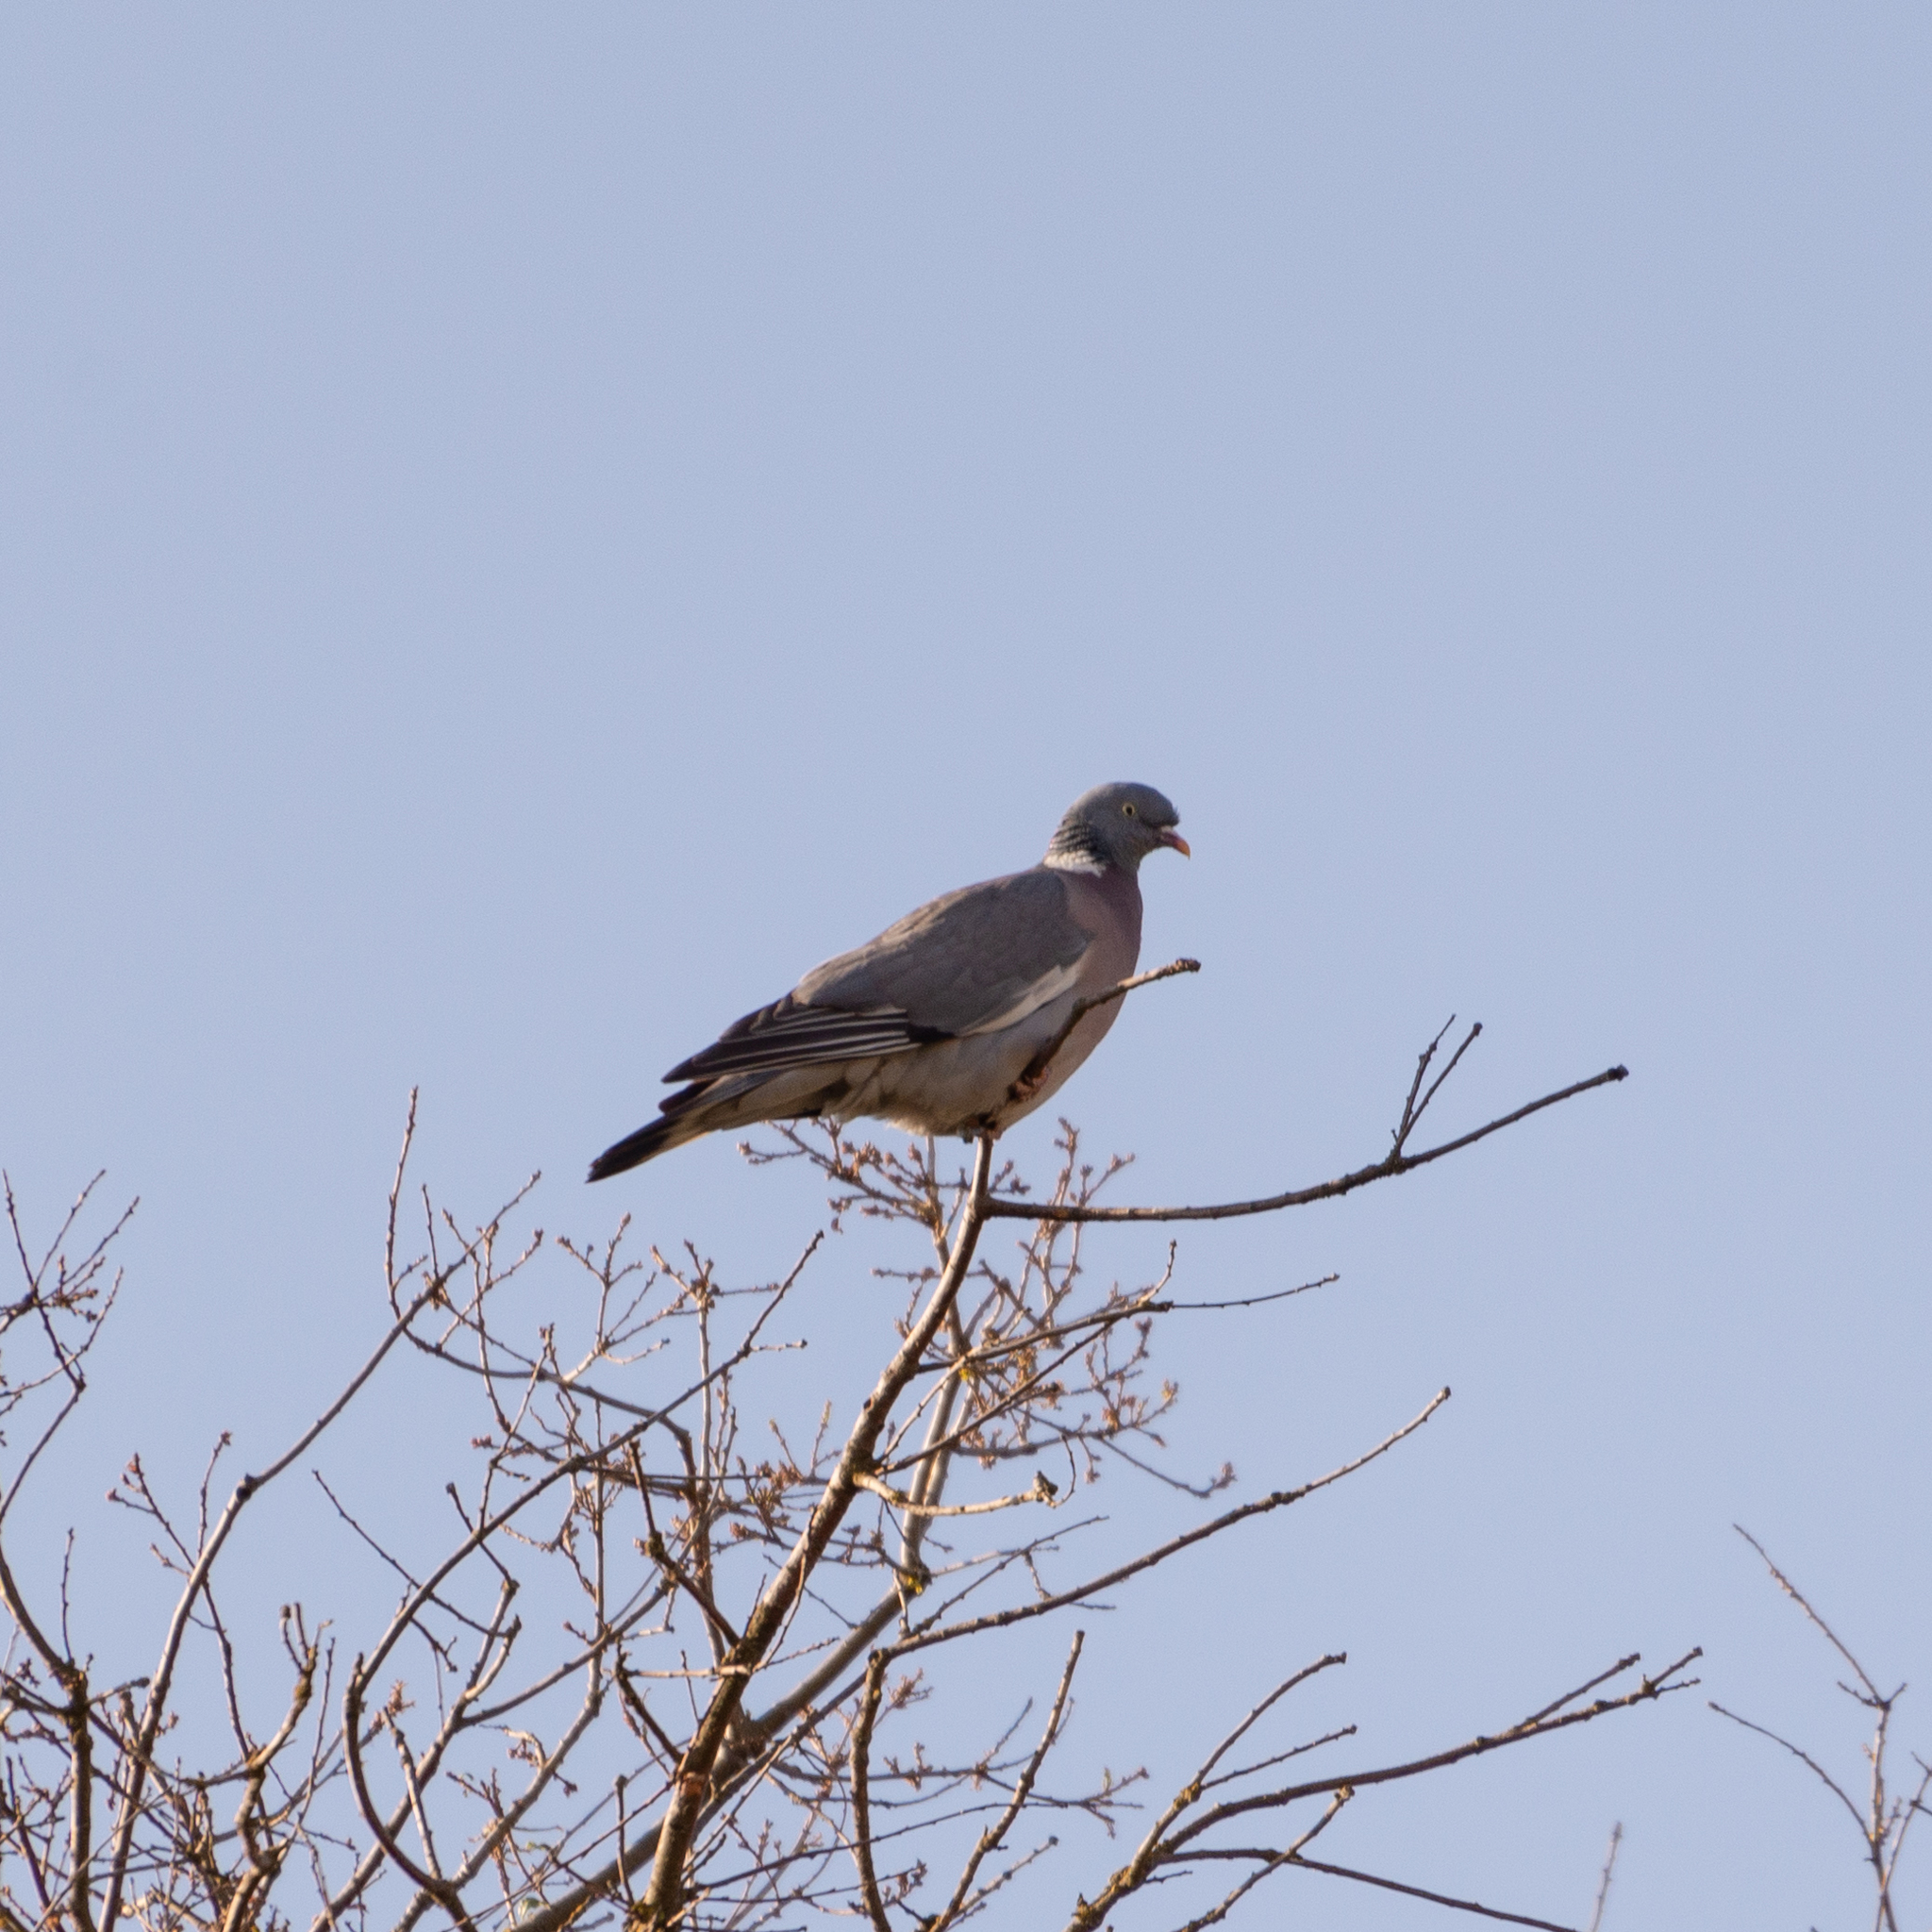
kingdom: Animalia
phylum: Chordata
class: Aves
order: Columbiformes
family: Columbidae
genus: Columba
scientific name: Columba palumbus
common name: Common wood pigeon
